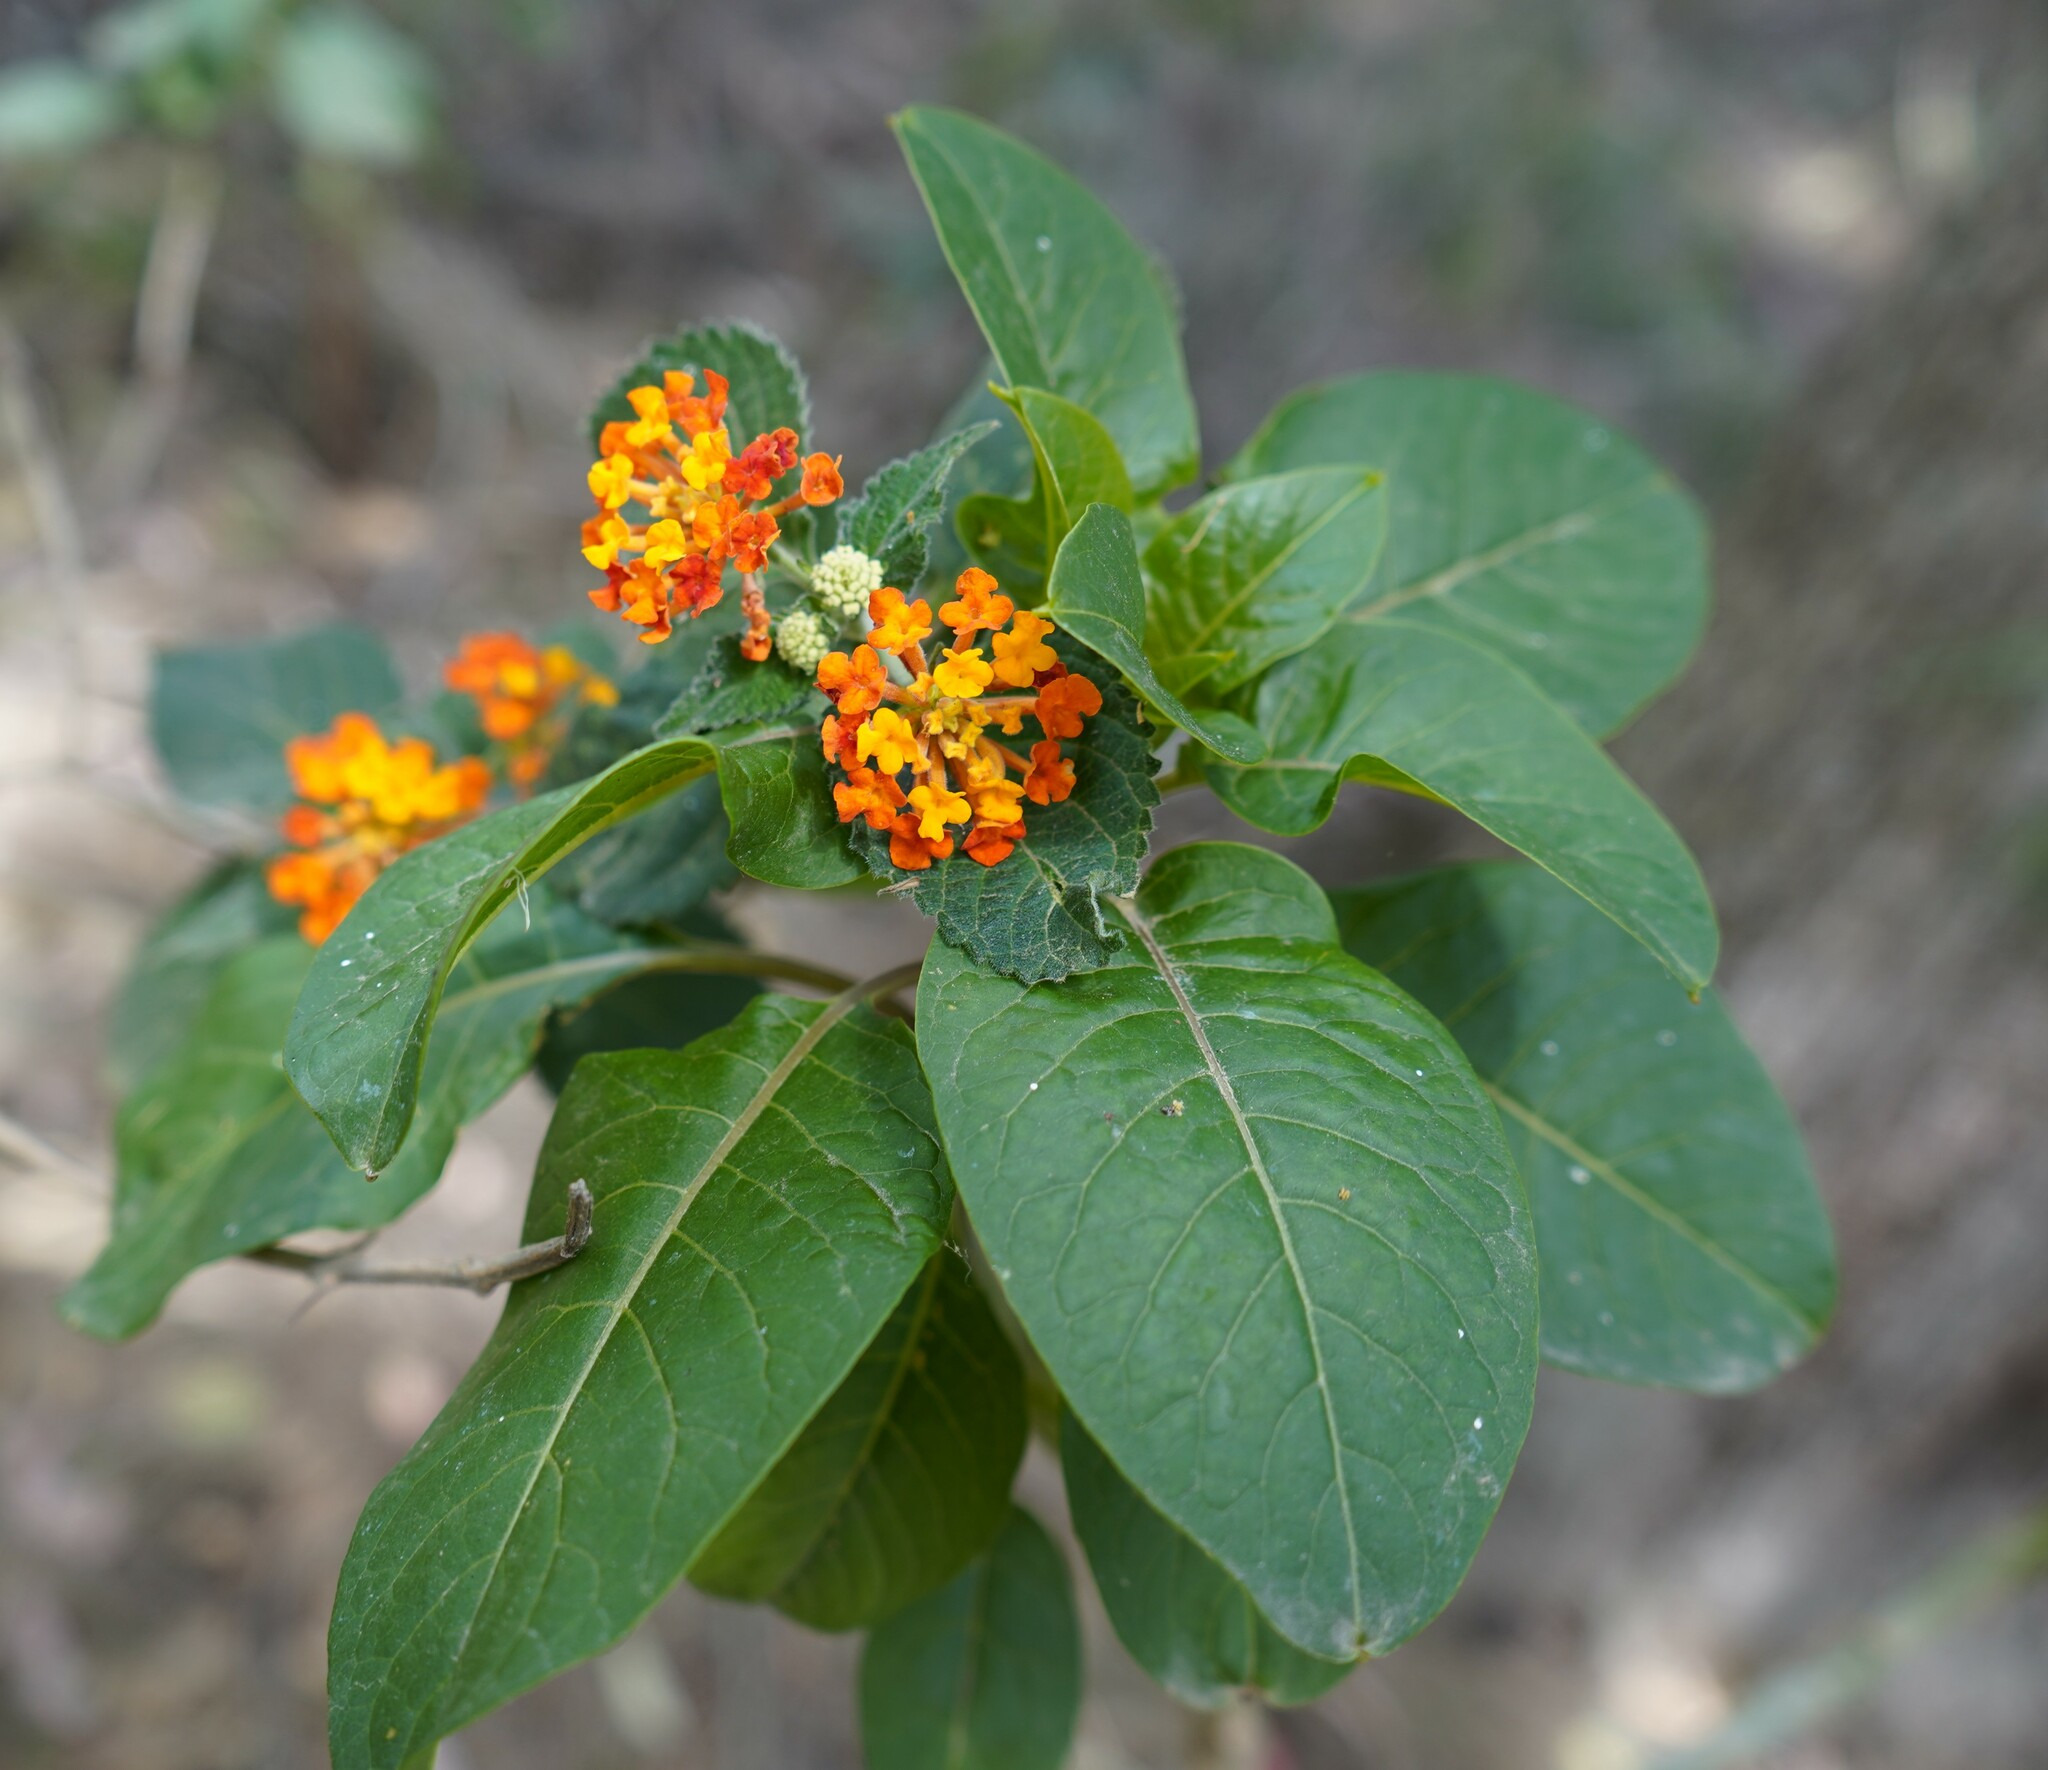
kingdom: Plantae
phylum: Tracheophyta
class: Magnoliopsida
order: Lamiales
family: Verbenaceae
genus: Lantana
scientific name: Lantana camara
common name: Lantana
